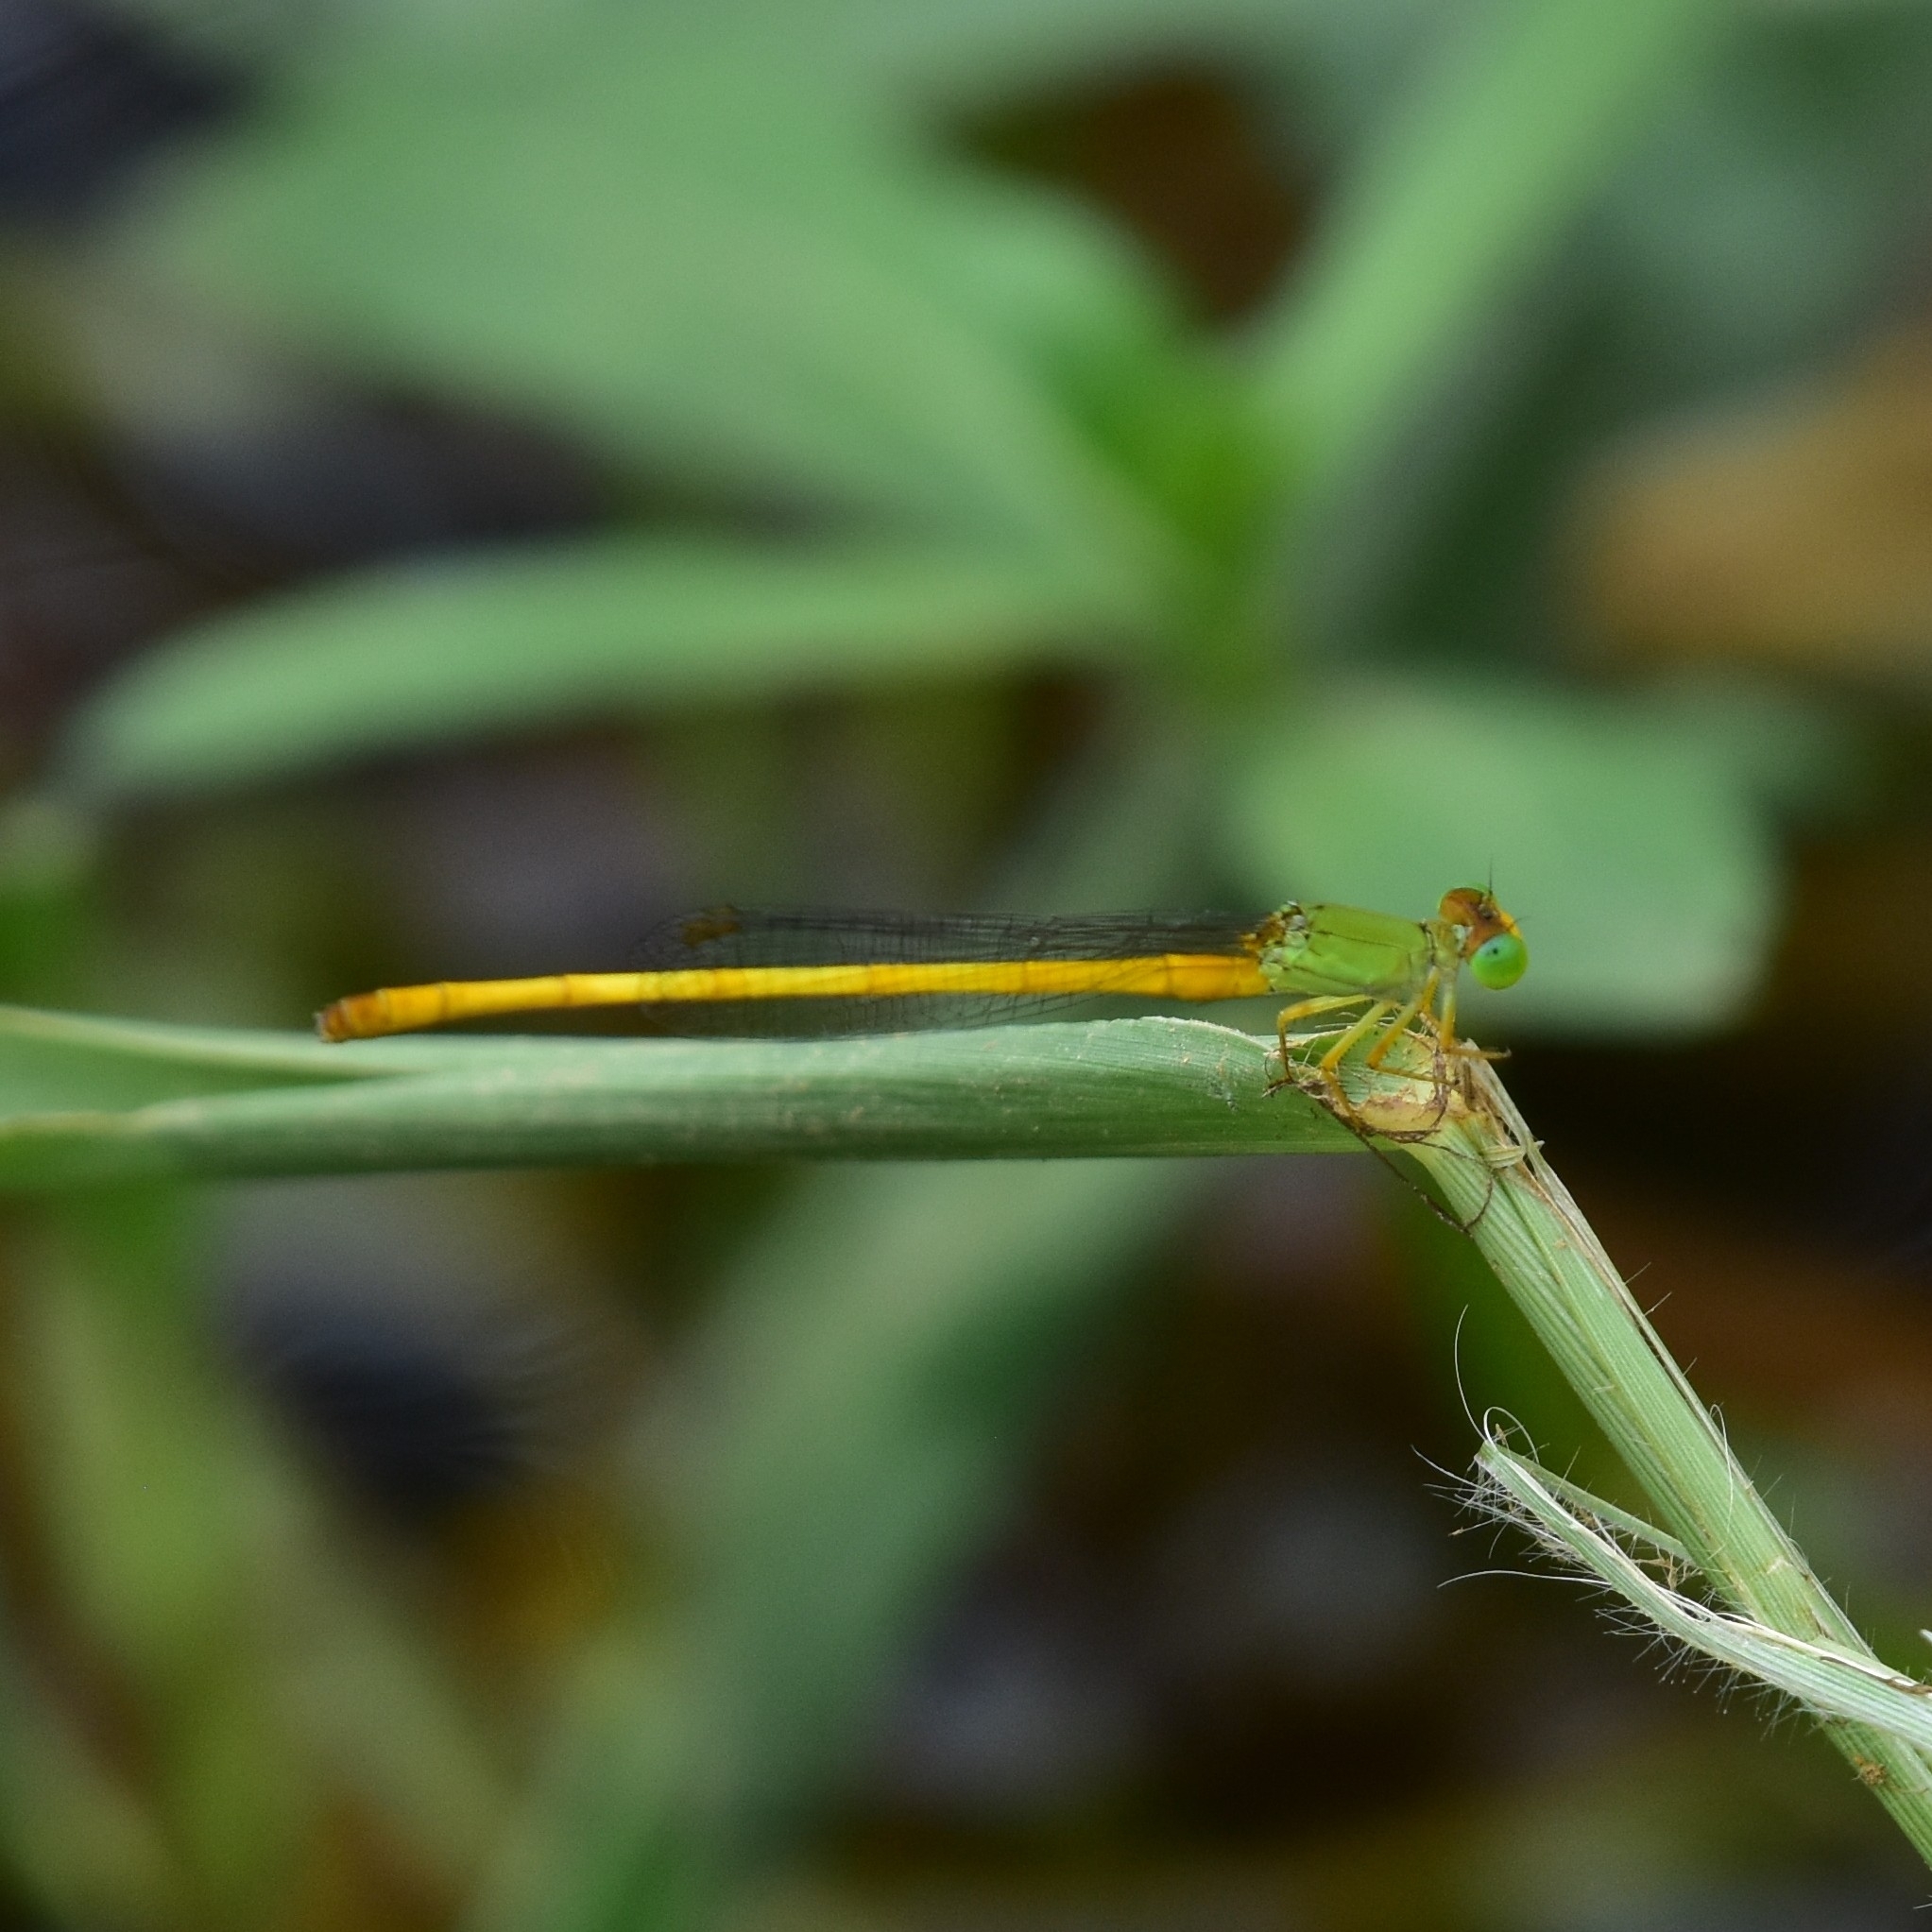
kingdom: Animalia
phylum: Arthropoda
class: Insecta
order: Odonata
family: Coenagrionidae
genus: Ceriagrion
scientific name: Ceriagrion coromandelianum
